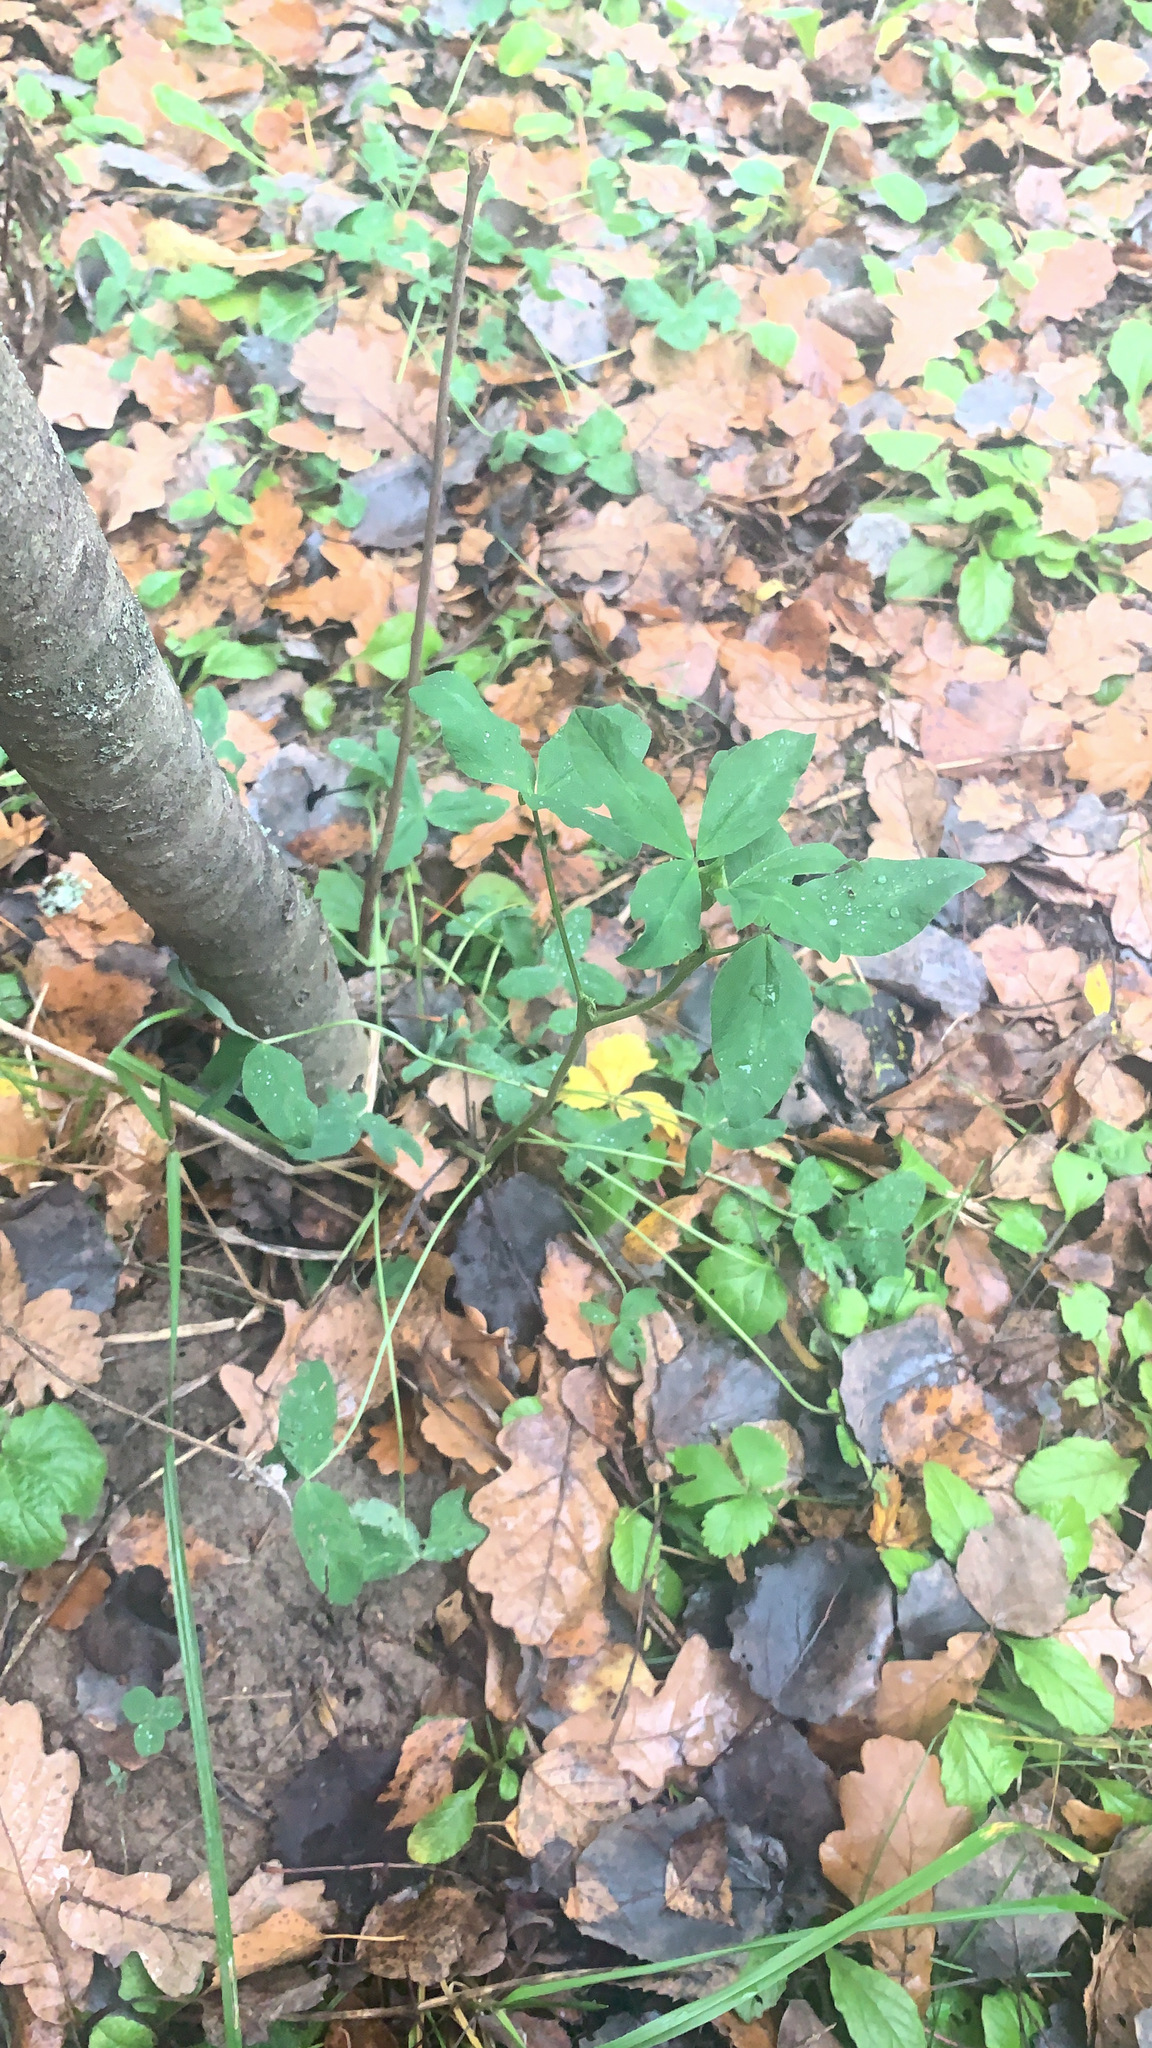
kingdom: Plantae
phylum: Tracheophyta
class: Magnoliopsida
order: Fabales
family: Fabaceae
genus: Trifolium
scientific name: Trifolium pratense
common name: Red clover
